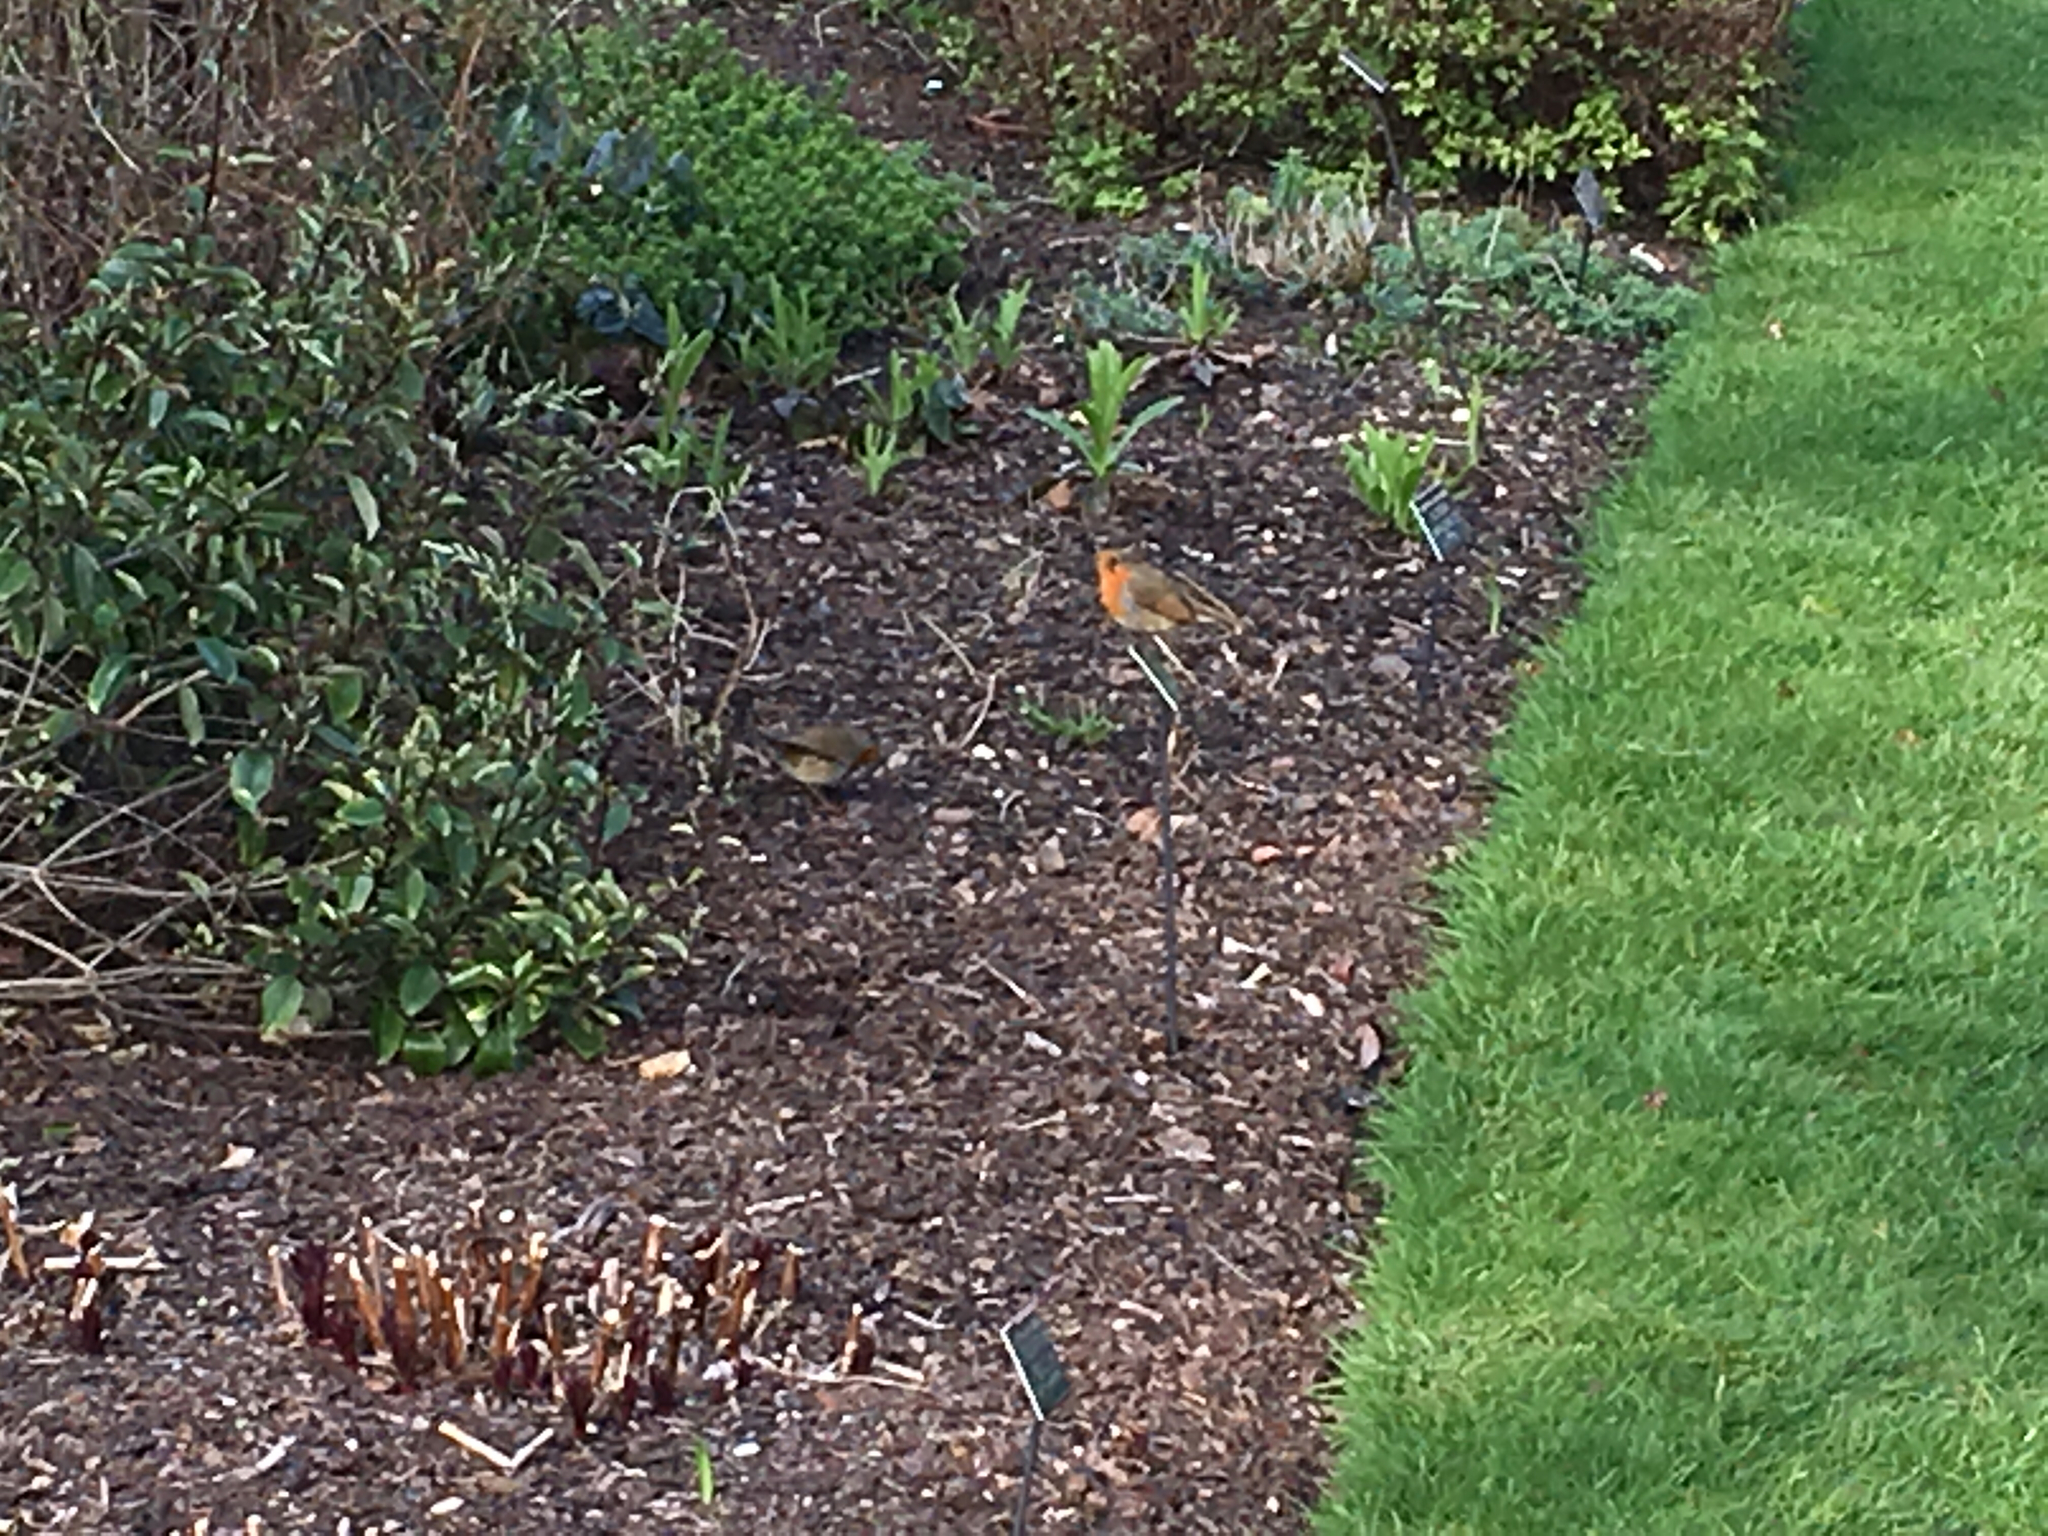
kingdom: Animalia
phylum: Chordata
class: Aves
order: Passeriformes
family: Muscicapidae
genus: Erithacus
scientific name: Erithacus rubecula
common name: European robin
